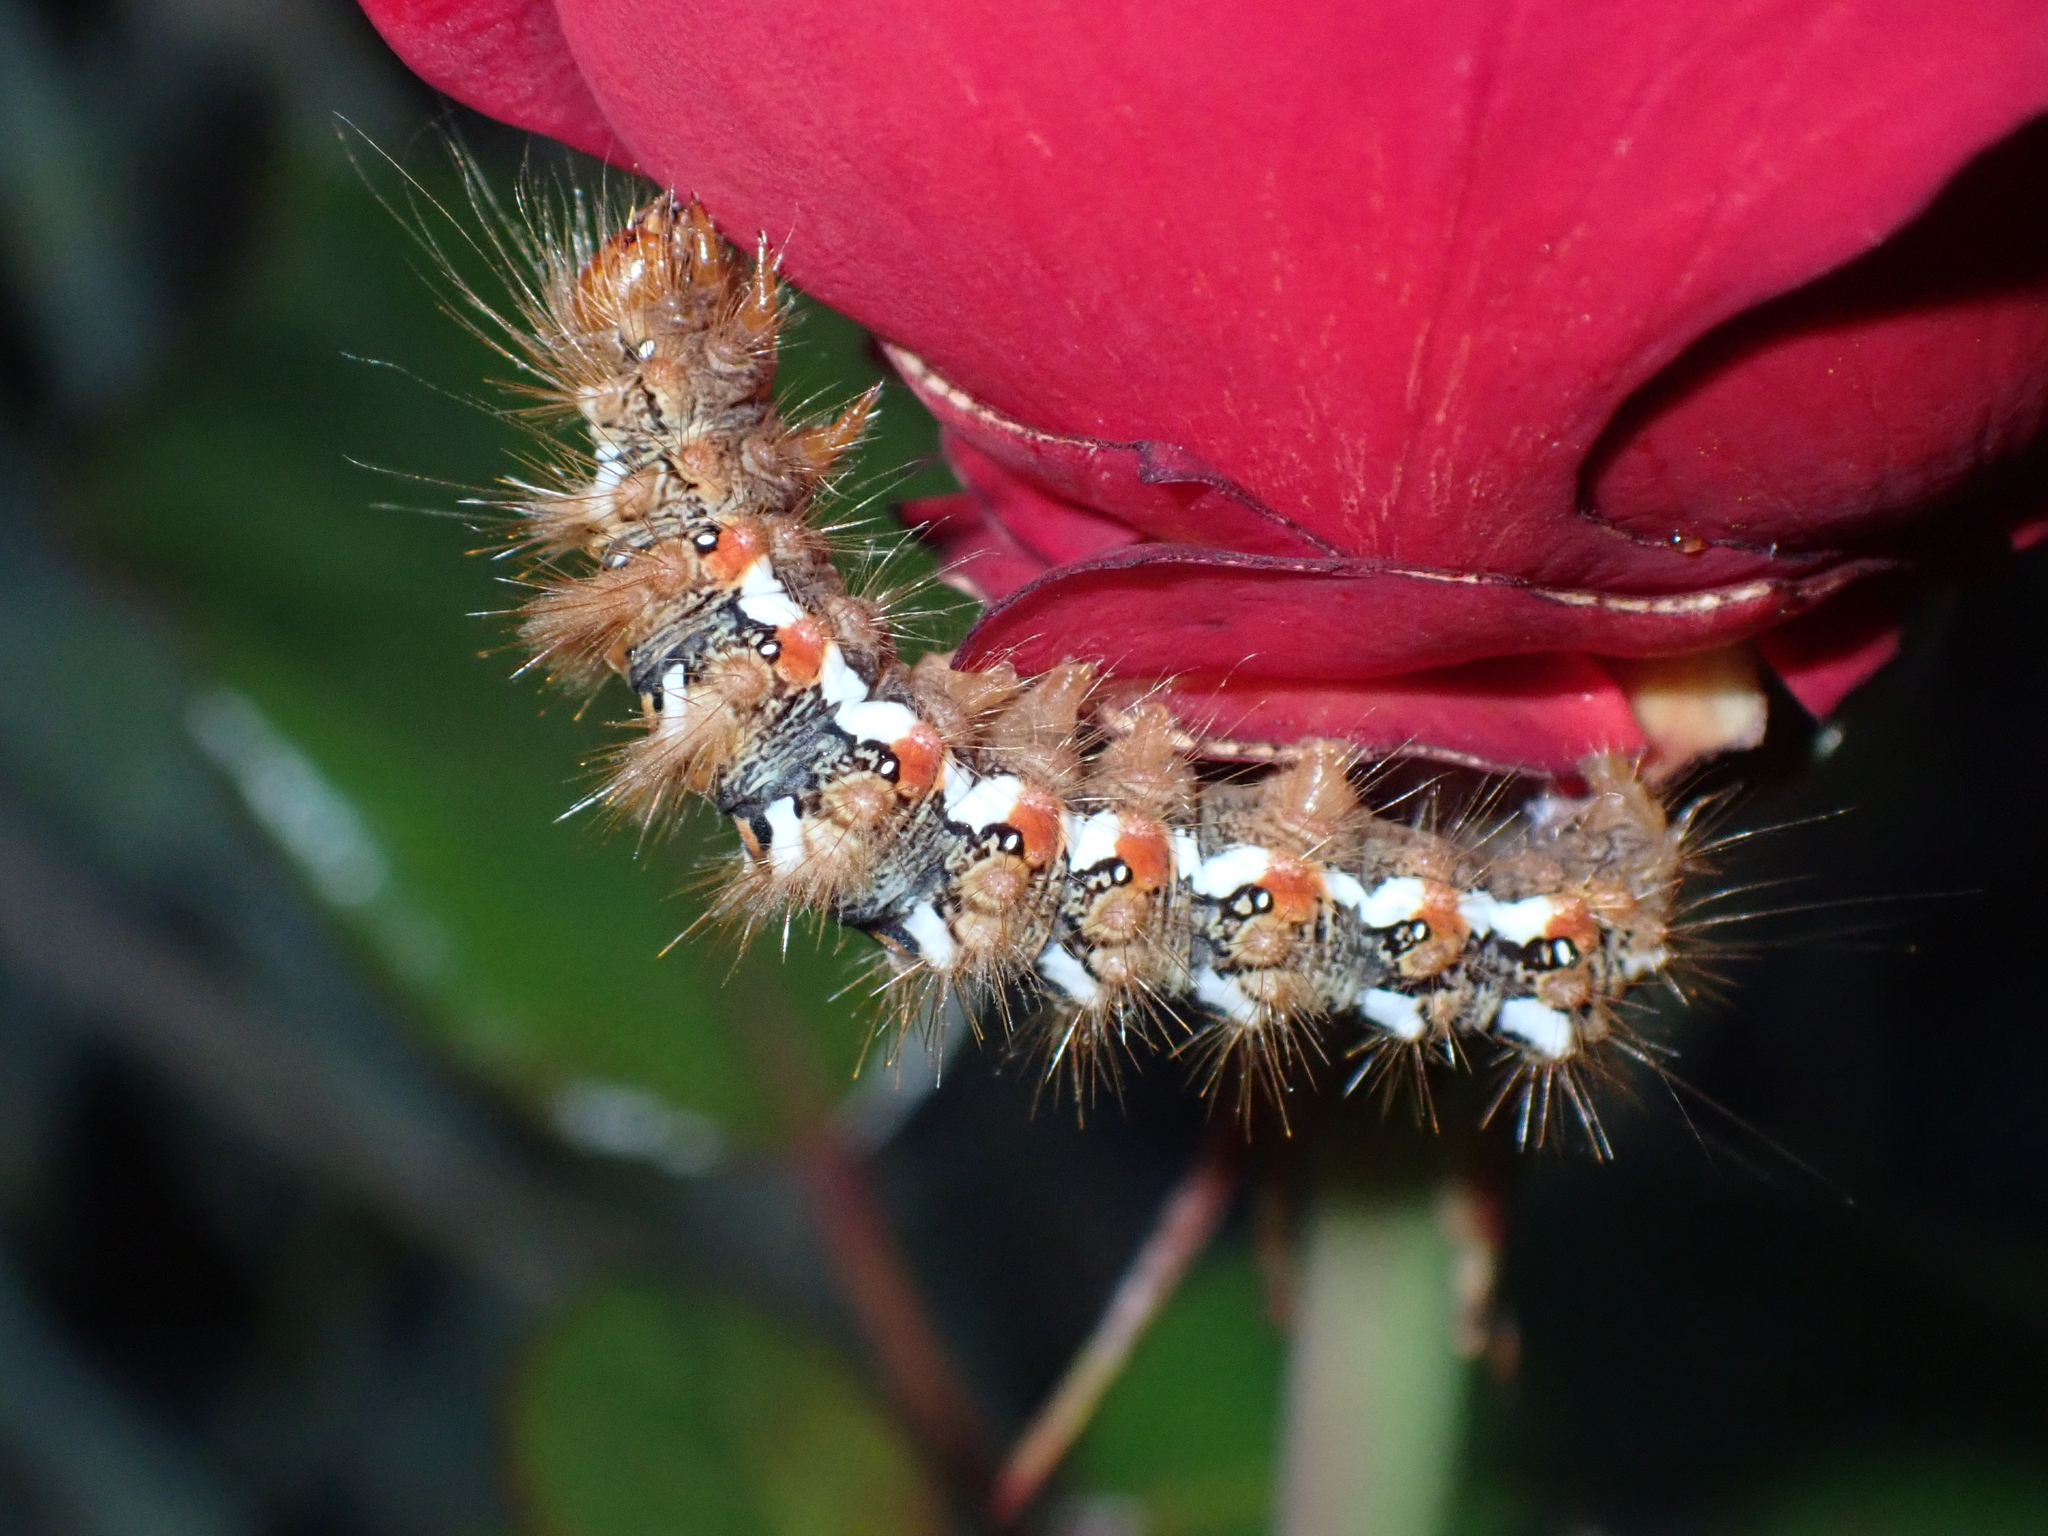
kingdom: Animalia
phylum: Arthropoda
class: Insecta
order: Lepidoptera
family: Noctuidae
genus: Acronicta
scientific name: Acronicta rumicis
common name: Knot grass
